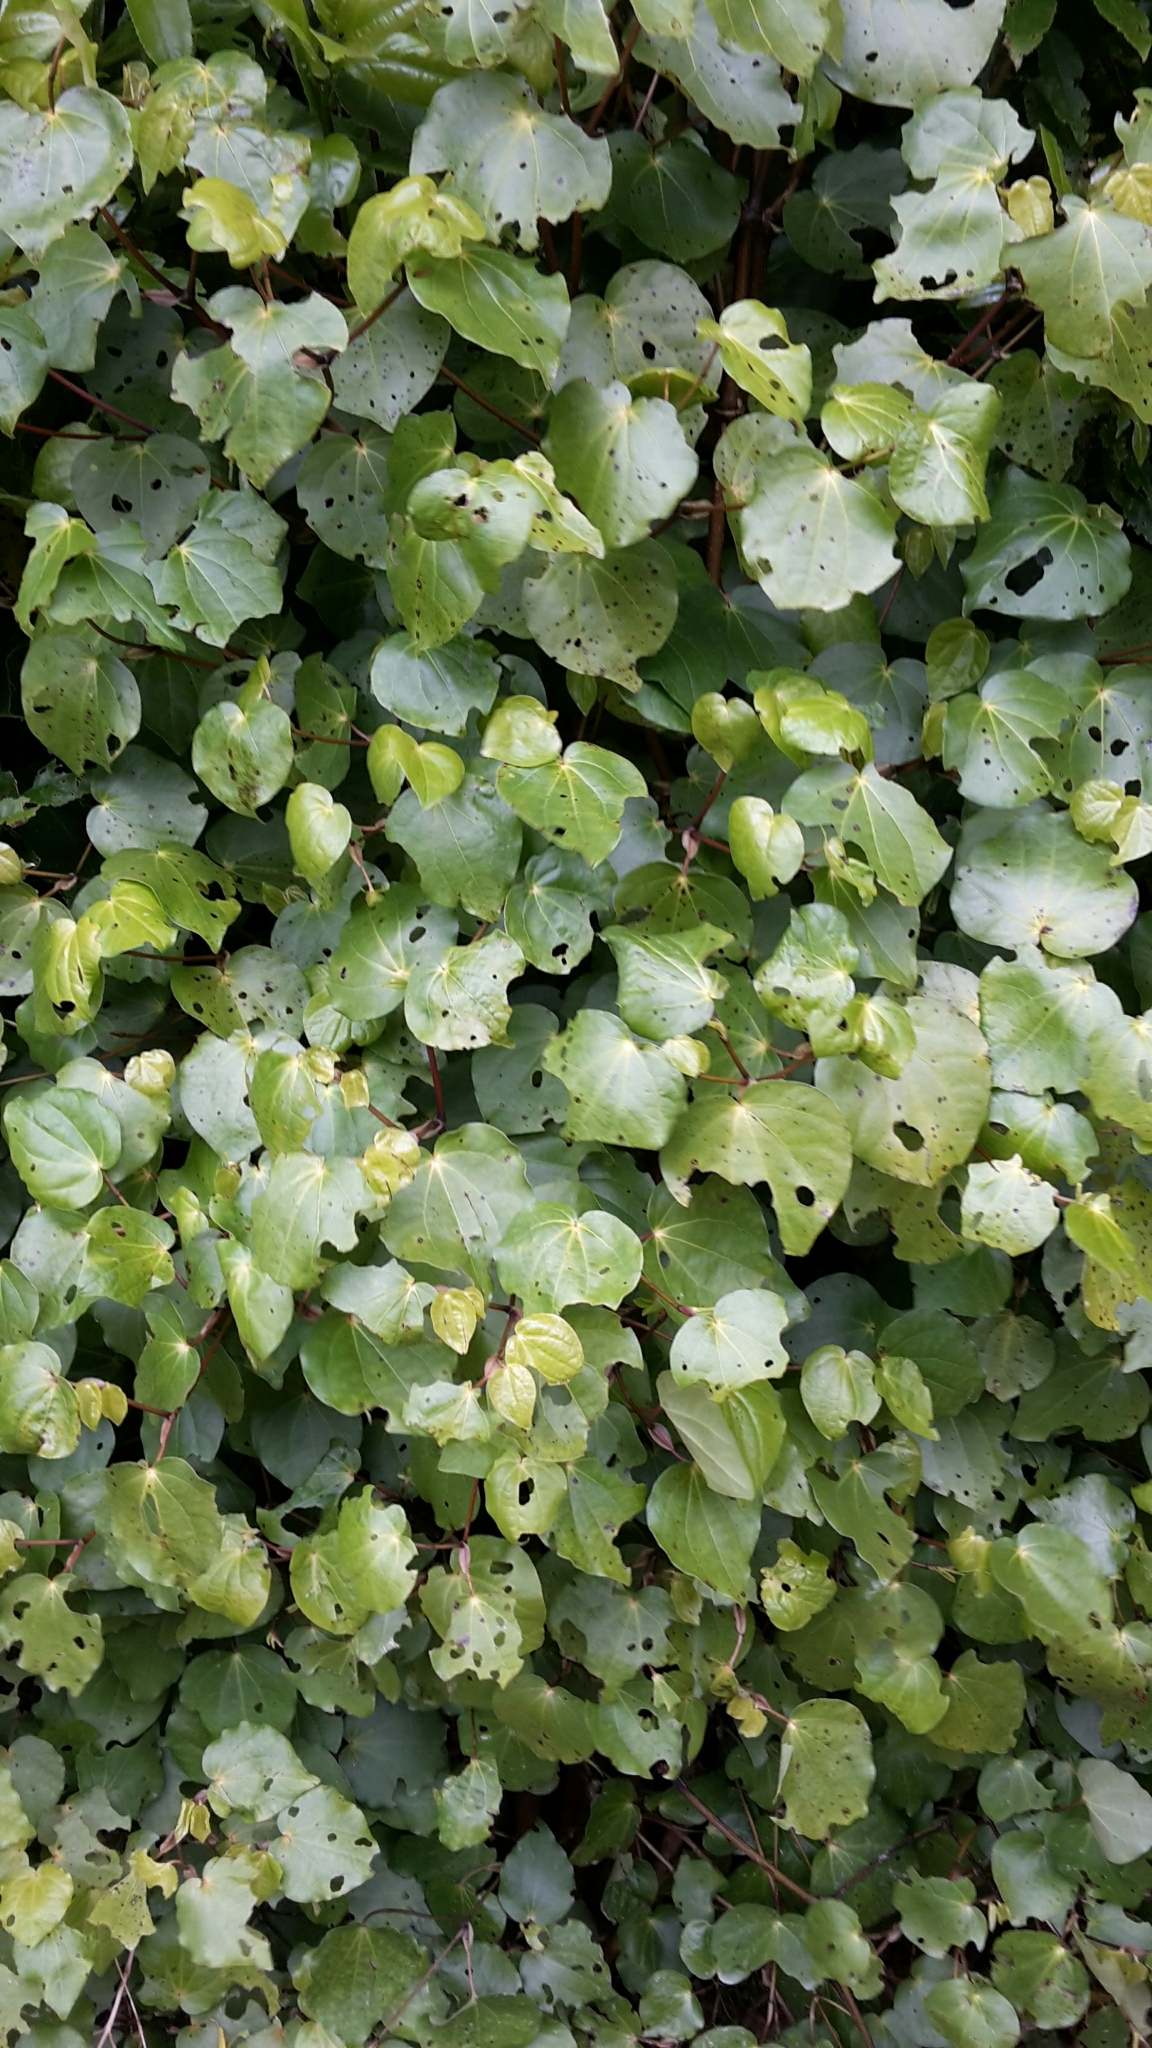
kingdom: Plantae
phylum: Tracheophyta
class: Magnoliopsida
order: Piperales
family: Piperaceae
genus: Macropiper
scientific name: Macropiper excelsum
